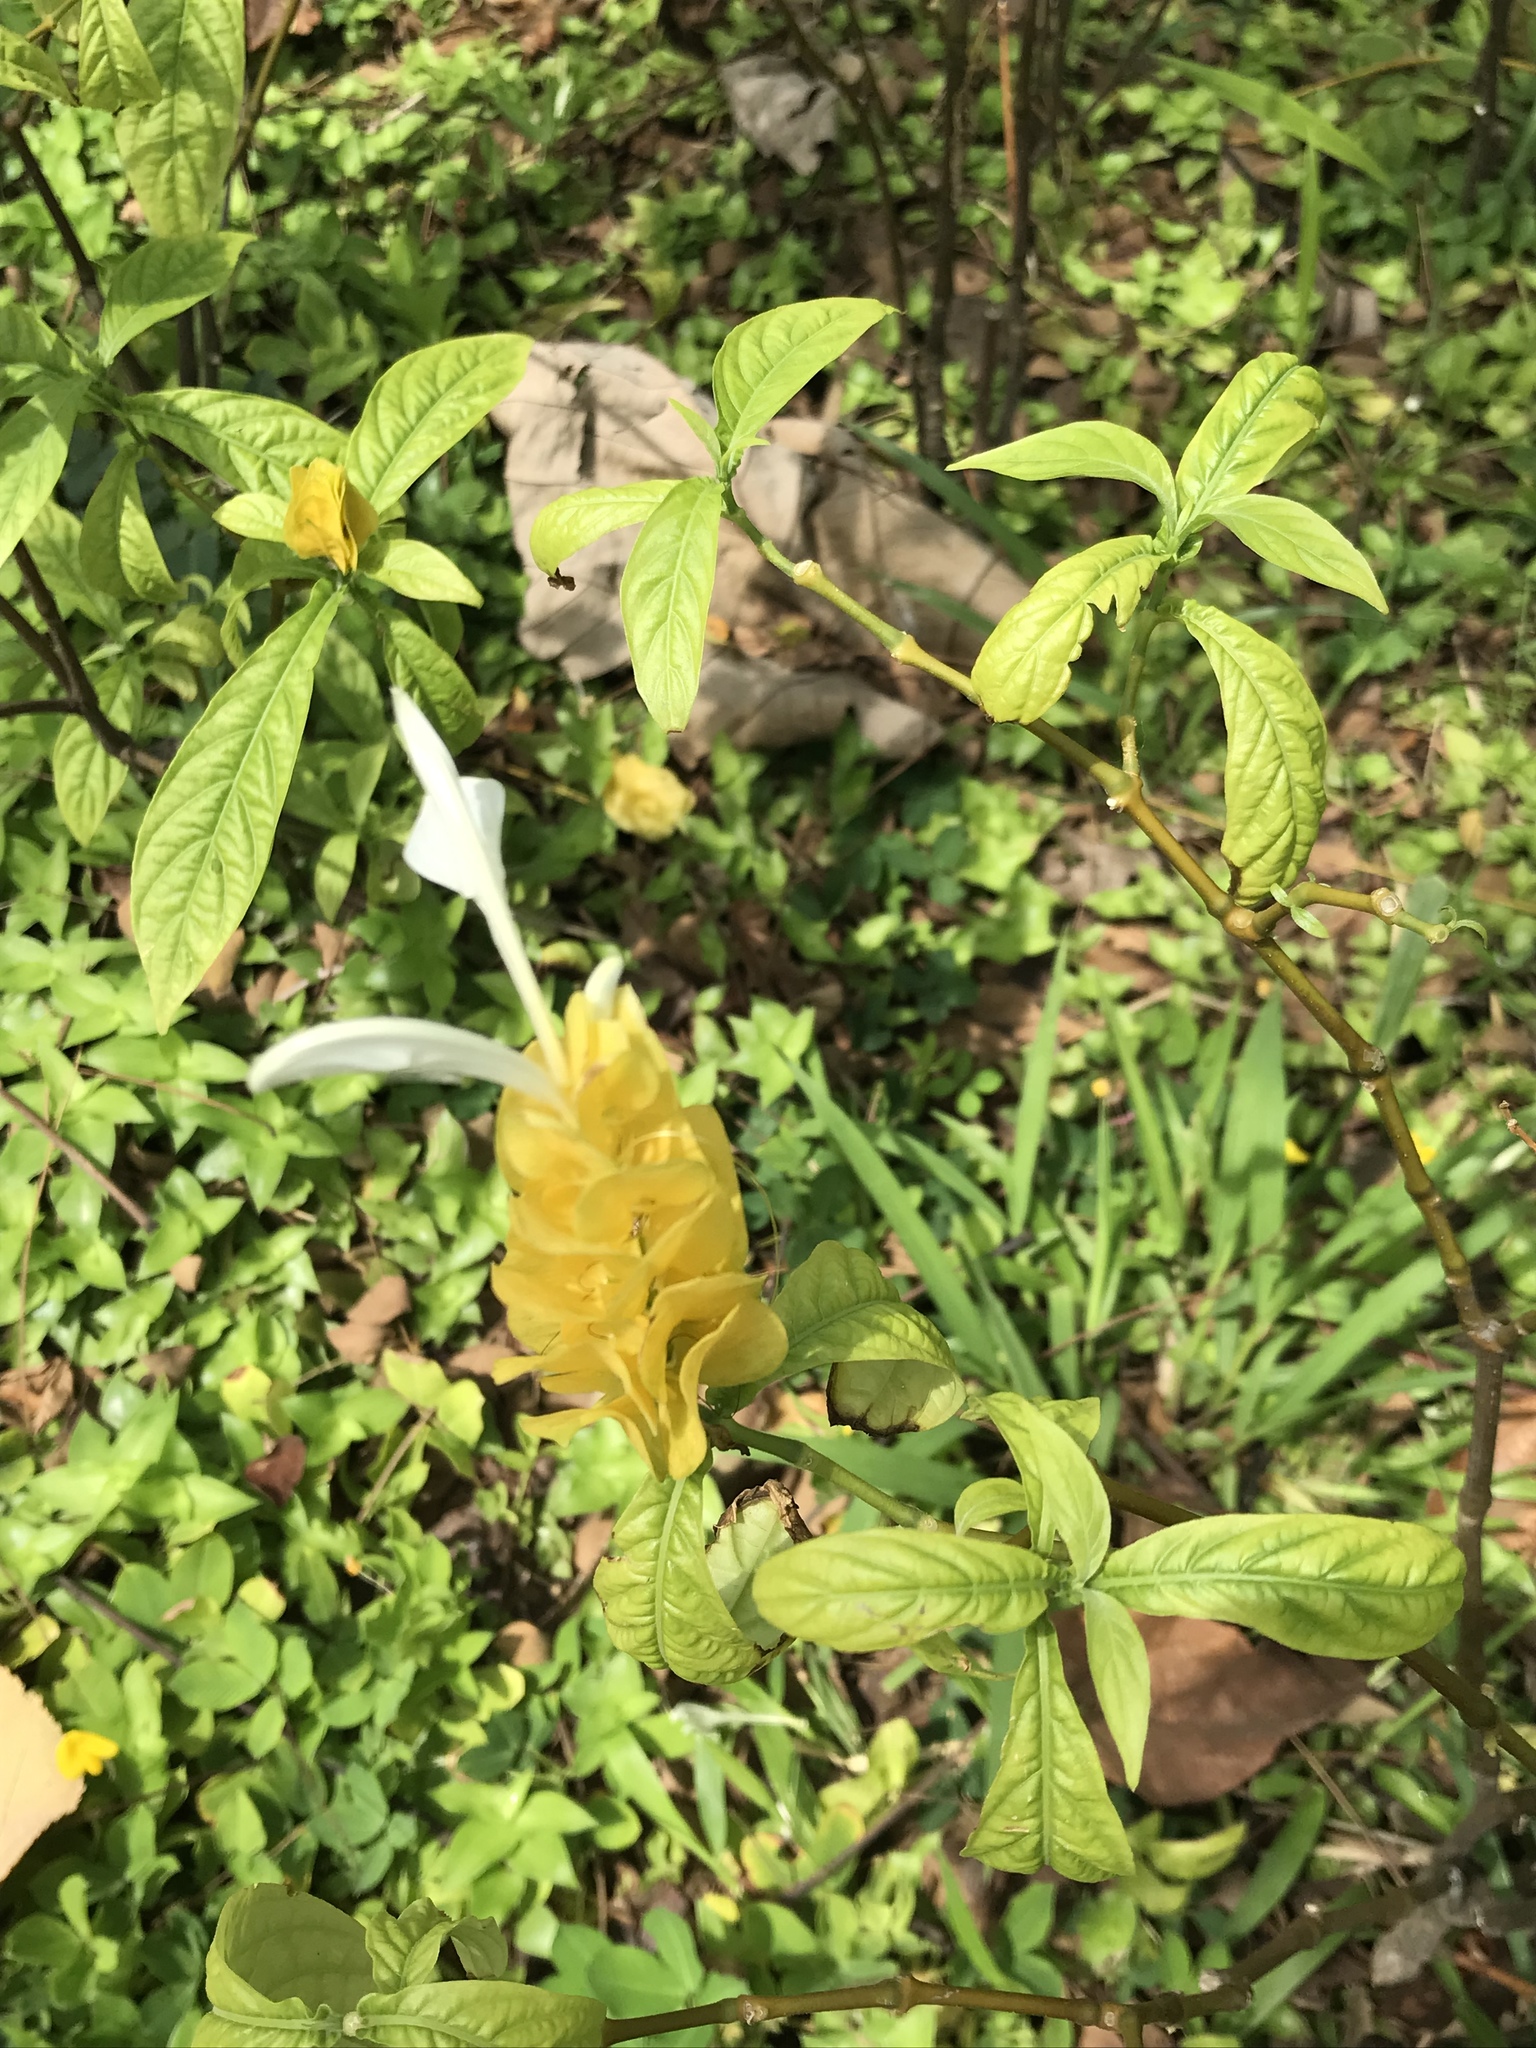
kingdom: Plantae
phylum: Tracheophyta
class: Magnoliopsida
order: Lamiales
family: Acanthaceae
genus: Pachystachys
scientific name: Pachystachys lutea
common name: Golden shrimp-plant
